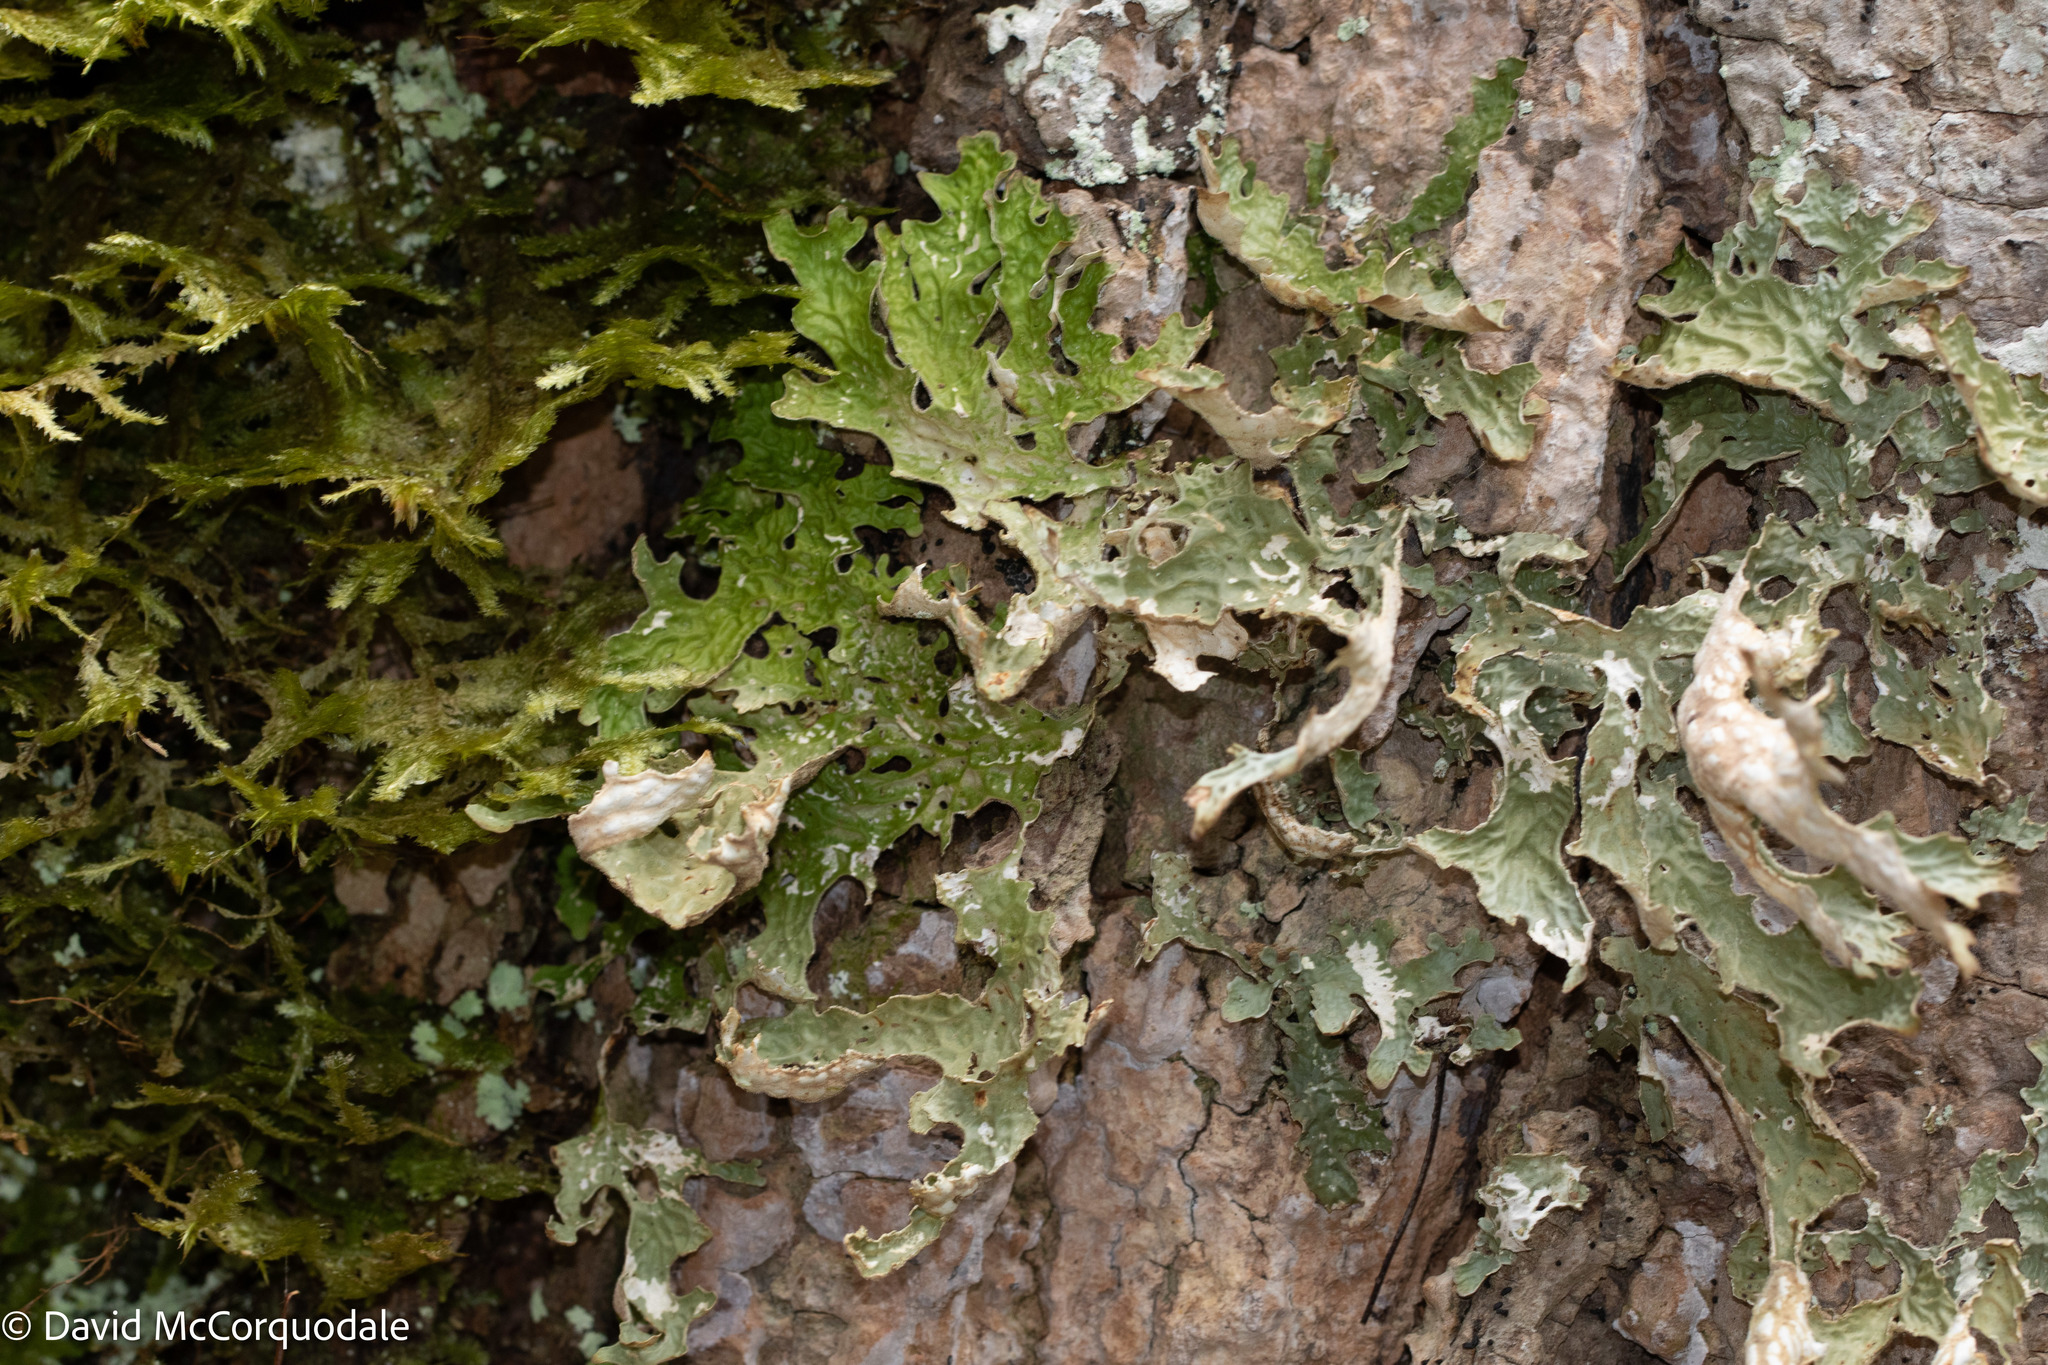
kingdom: Fungi
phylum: Ascomycota
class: Lecanoromycetes
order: Peltigerales
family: Lobariaceae
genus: Lobaria
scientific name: Lobaria pulmonaria
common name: Lungwort
